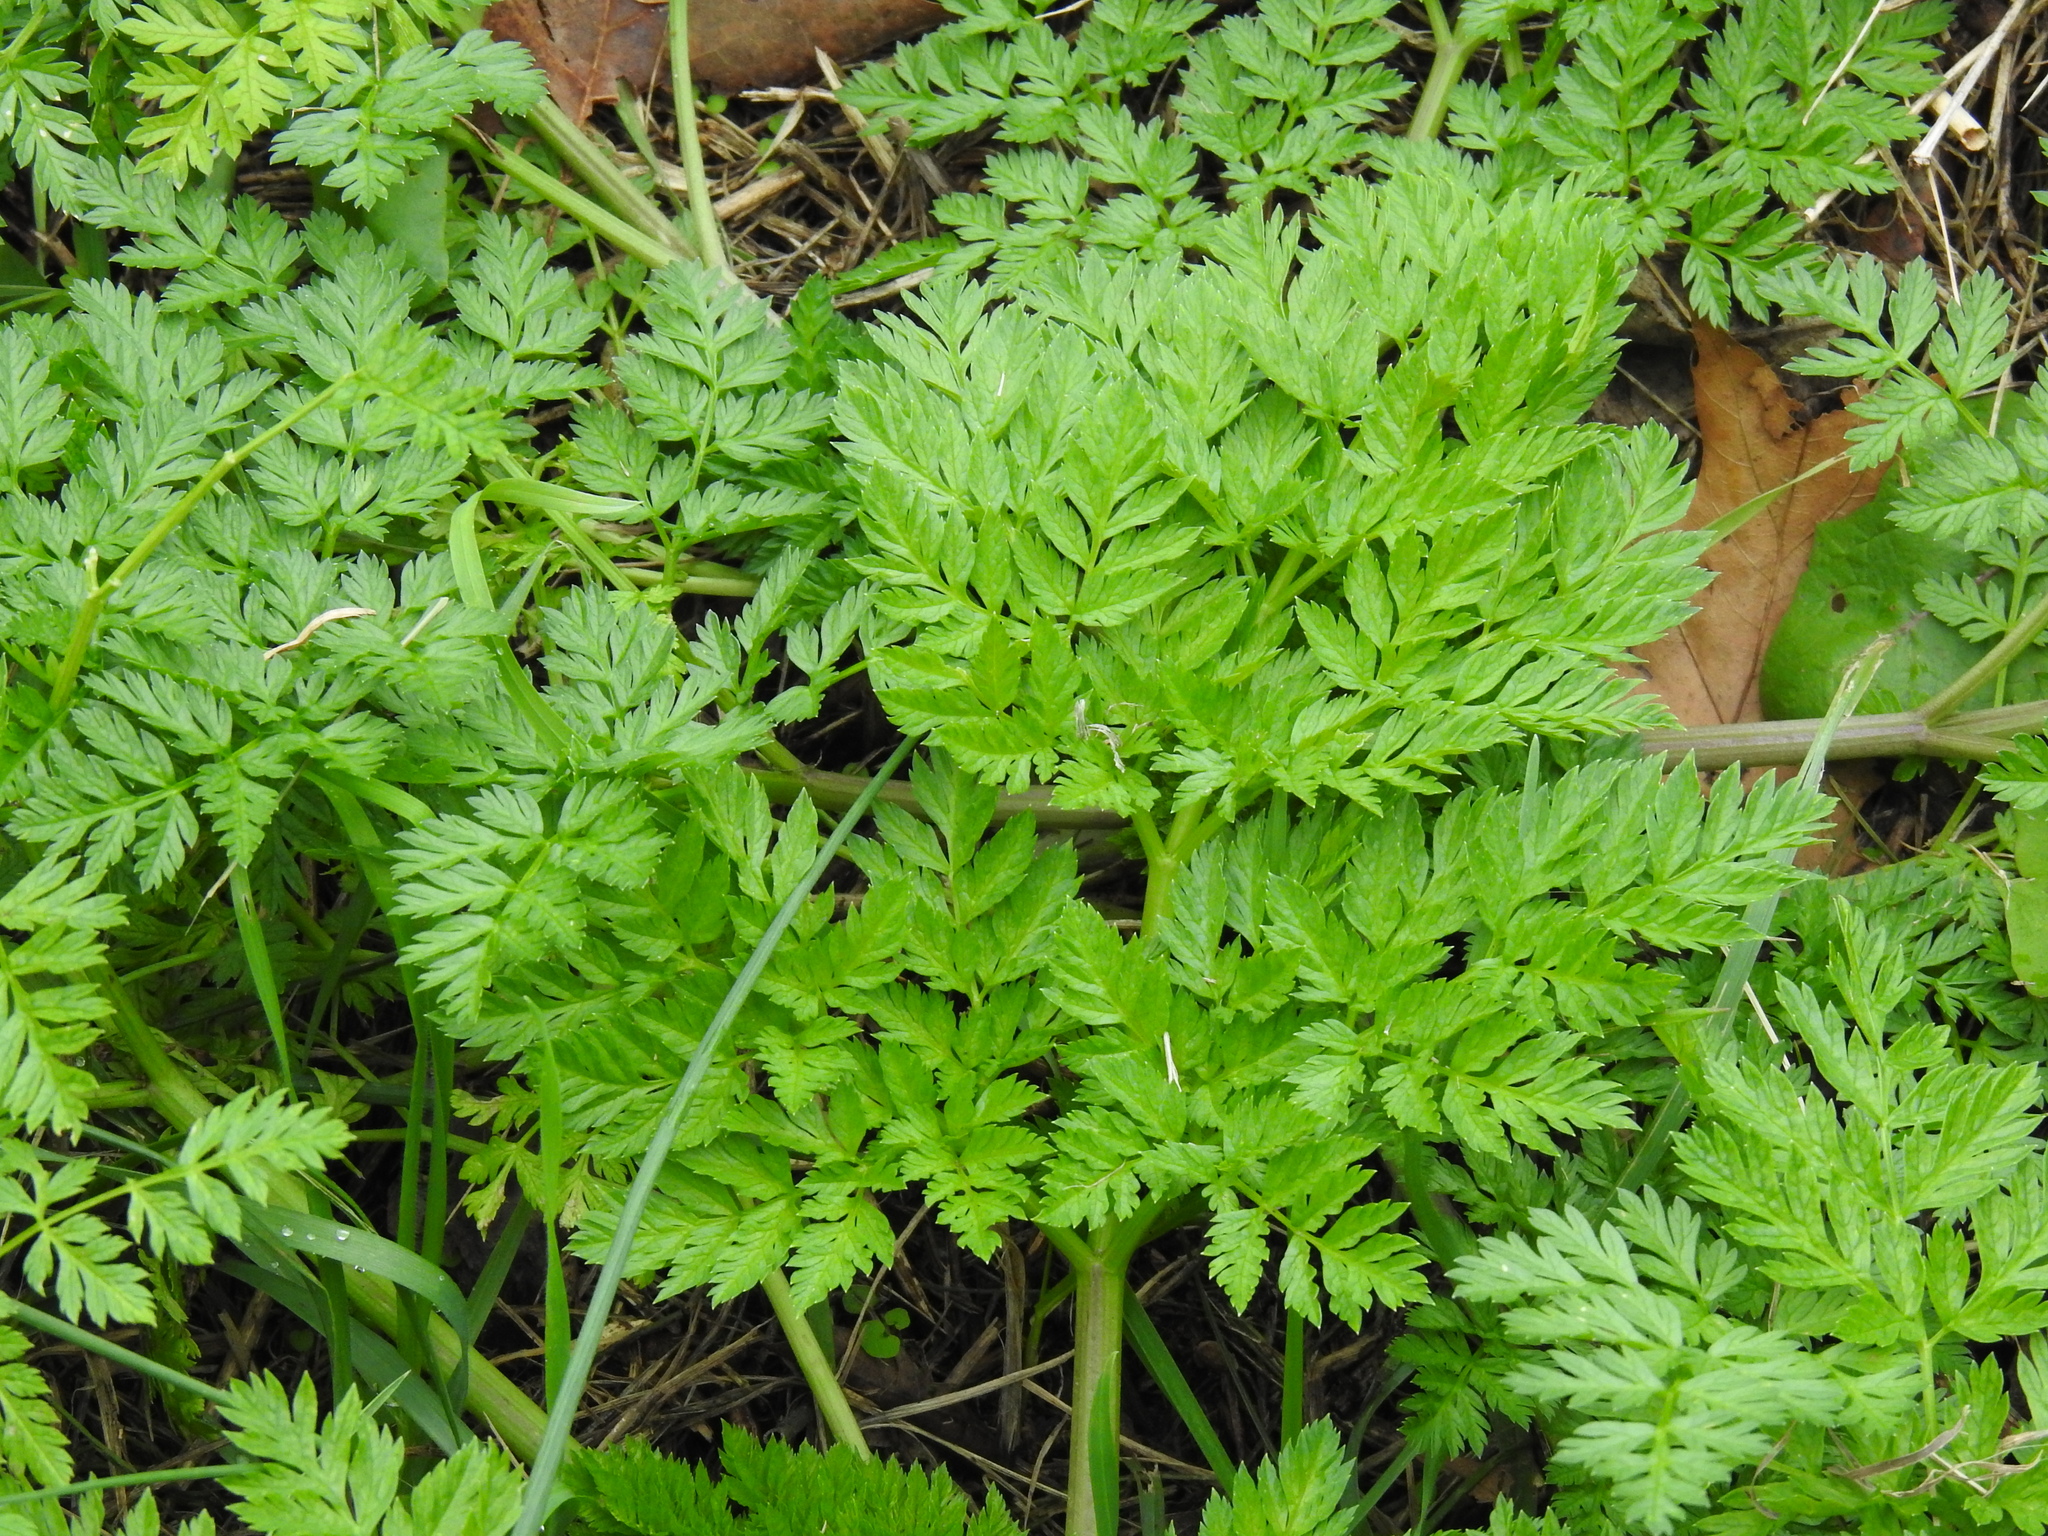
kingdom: Plantae
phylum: Tracheophyta
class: Magnoliopsida
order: Apiales
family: Apiaceae
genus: Conium
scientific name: Conium maculatum
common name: Hemlock
